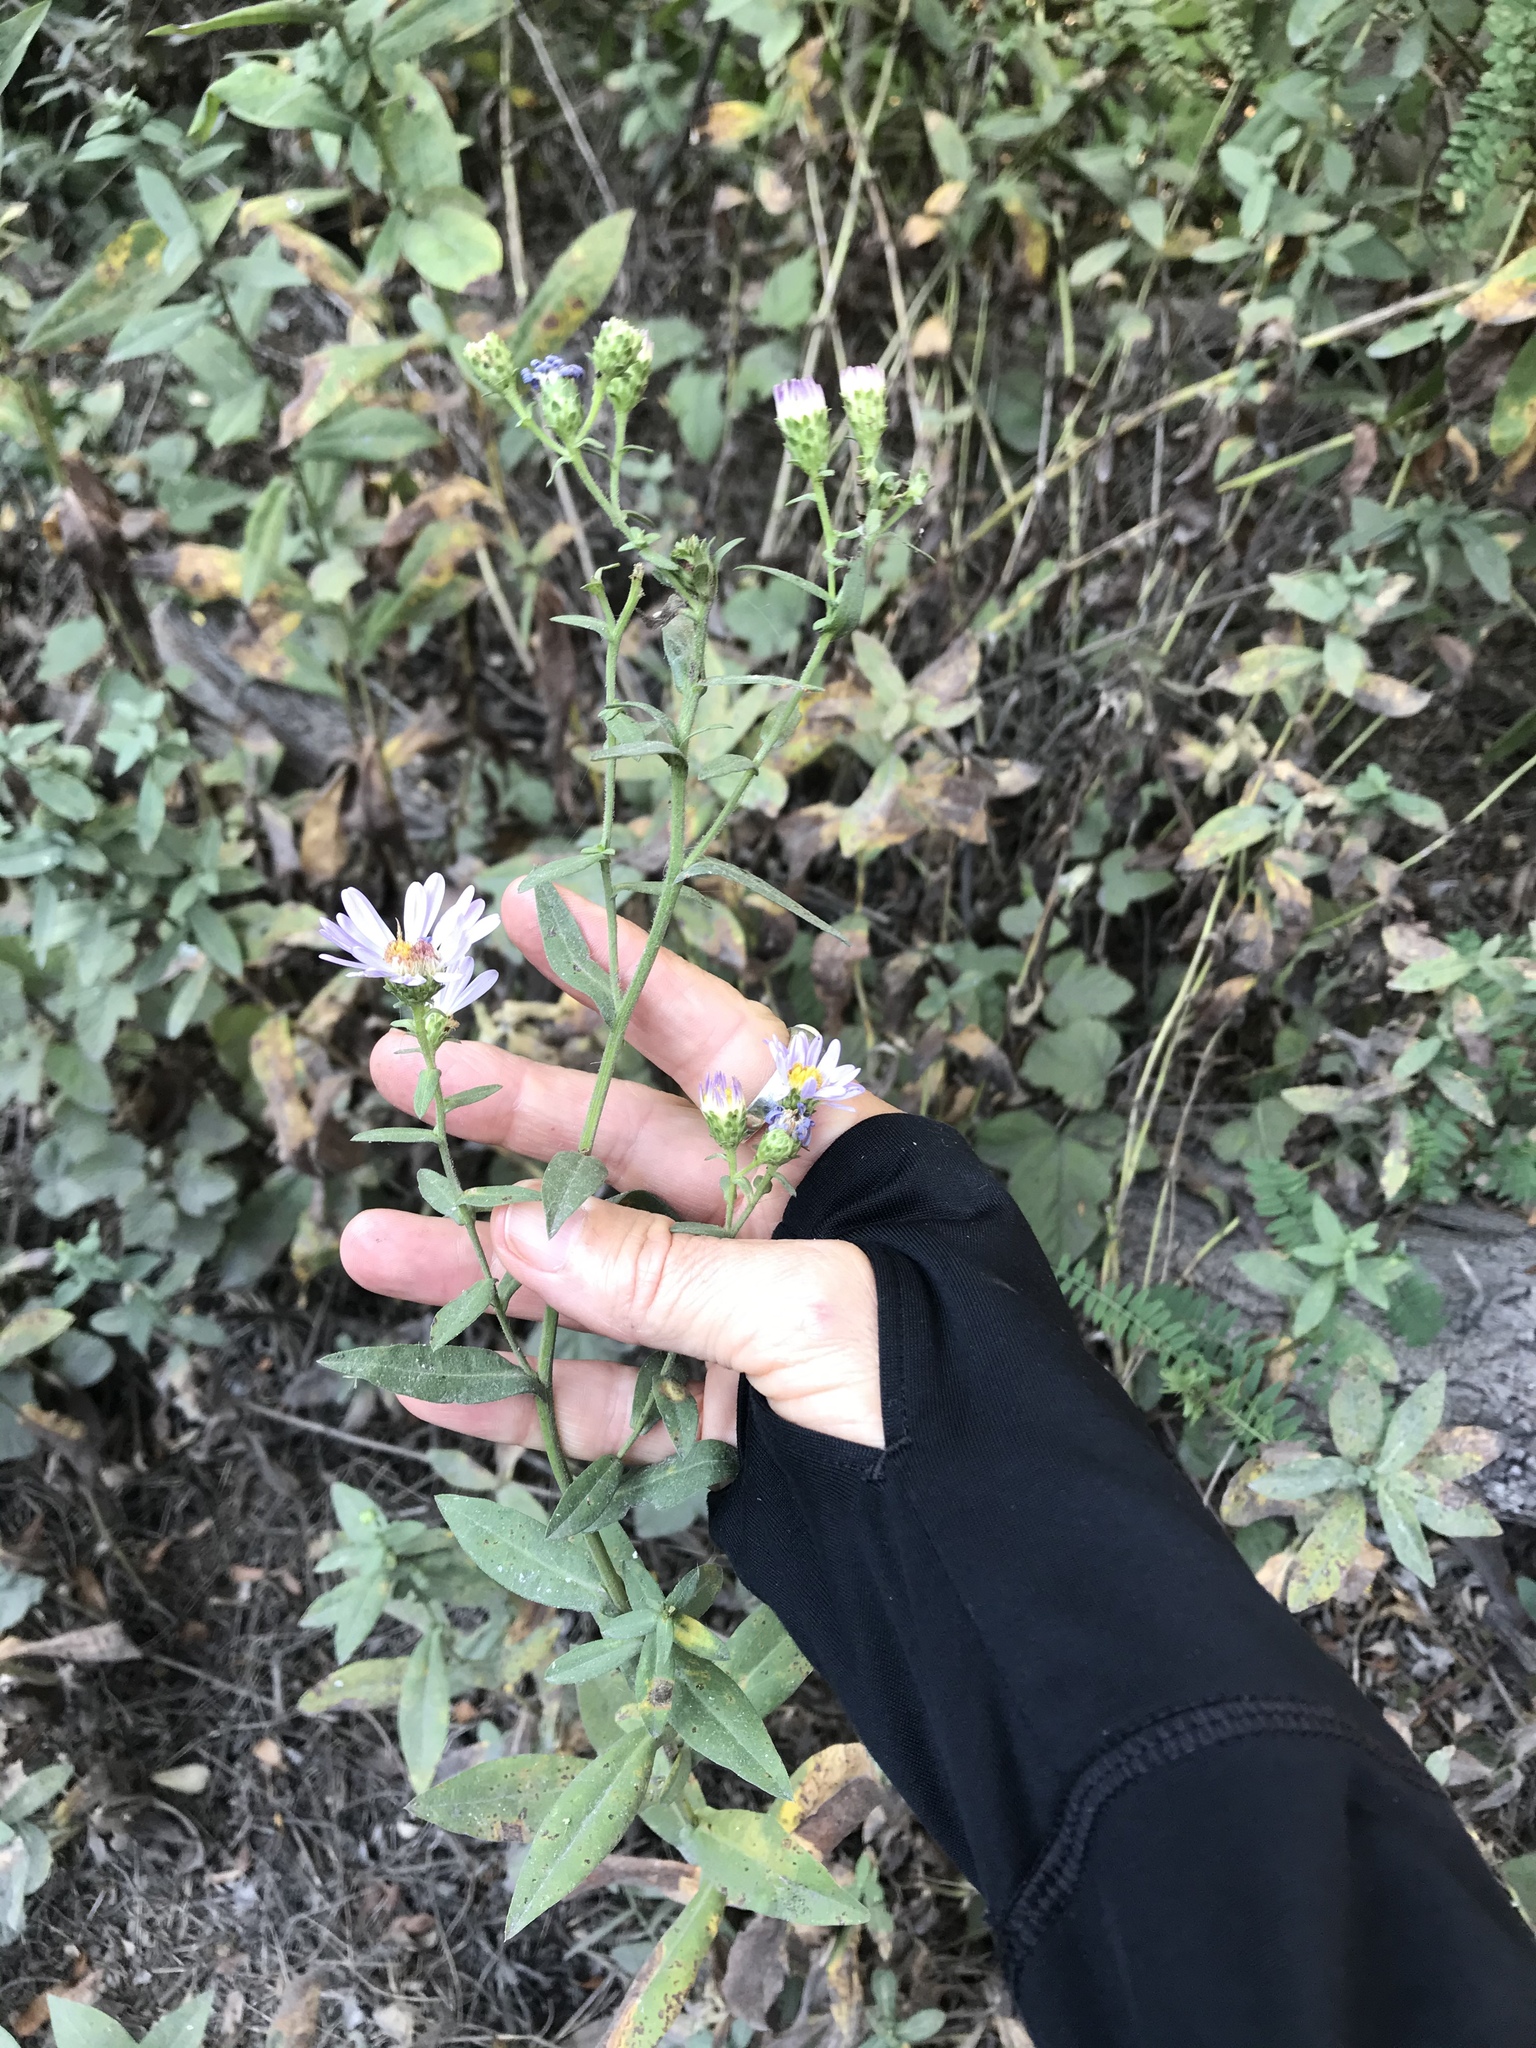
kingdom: Plantae
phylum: Tracheophyta
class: Magnoliopsida
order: Asterales
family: Asteraceae
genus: Symphyotrichum
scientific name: Symphyotrichum chilense
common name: Pacific aster
